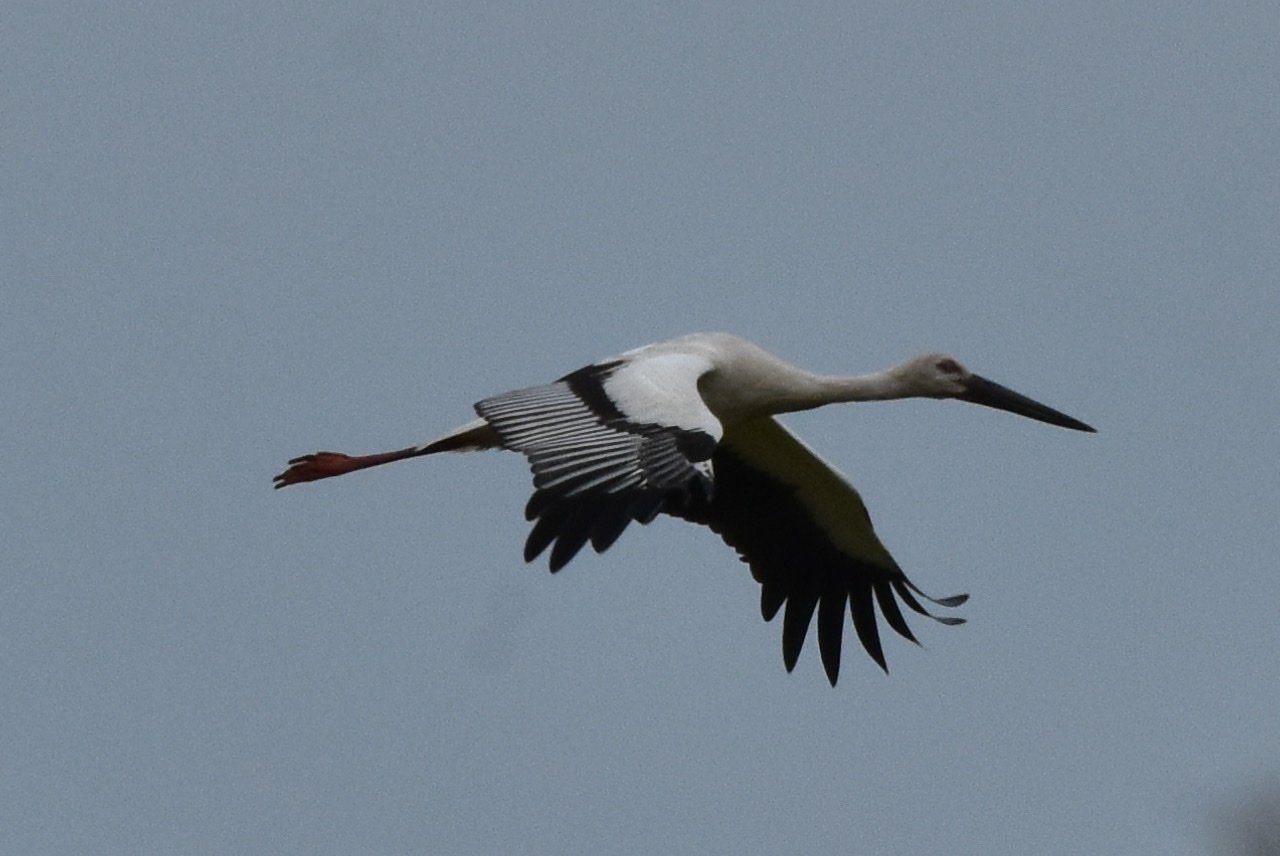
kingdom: Animalia
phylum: Chordata
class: Aves
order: Ciconiiformes
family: Ciconiidae
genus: Ciconia
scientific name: Ciconia boyciana
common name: Oriental stork
